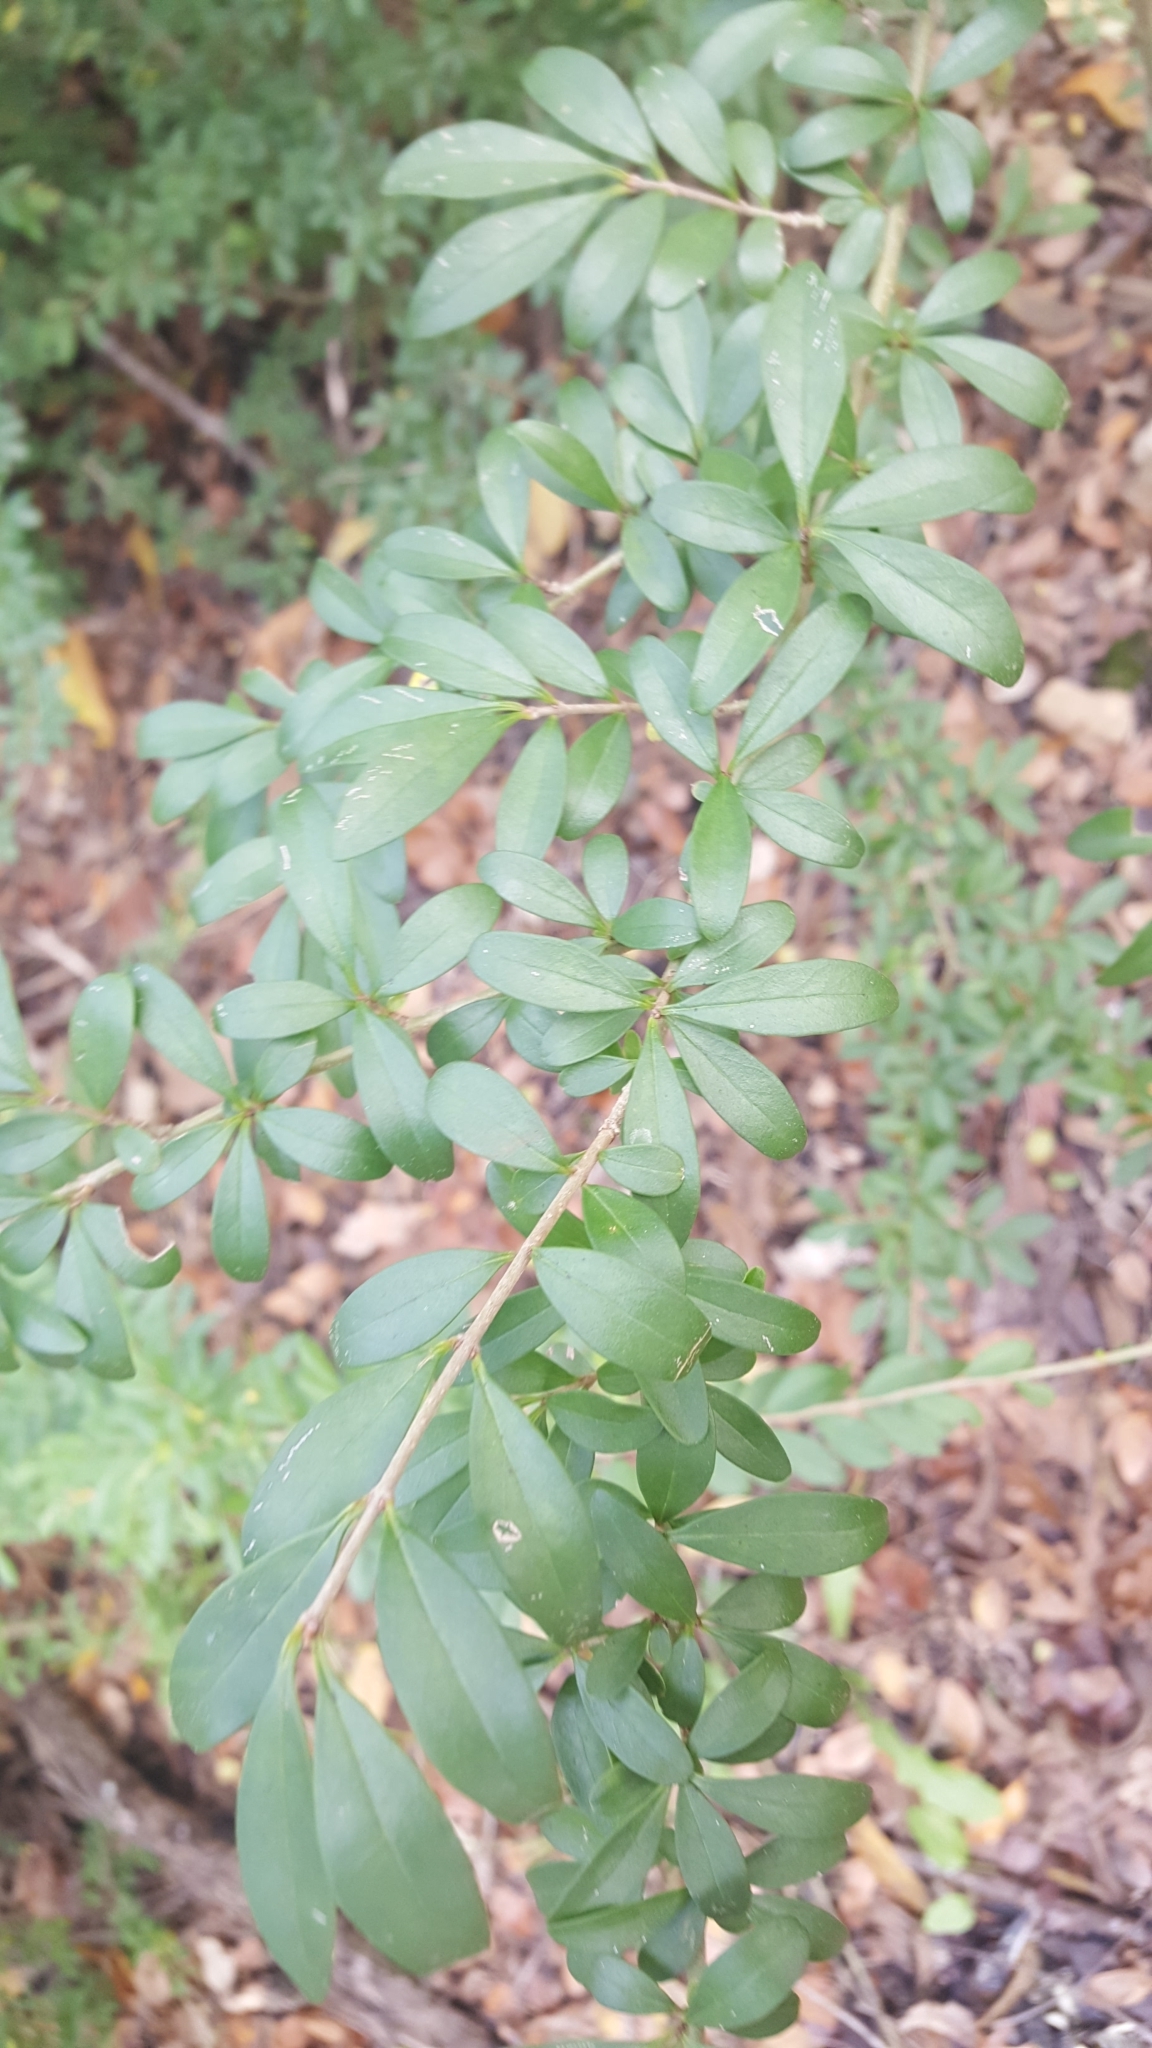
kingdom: Plantae
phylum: Tracheophyta
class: Magnoliopsida
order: Lamiales
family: Oleaceae
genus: Ligustrum
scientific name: Ligustrum quihoui
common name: Waxyleaf privet
